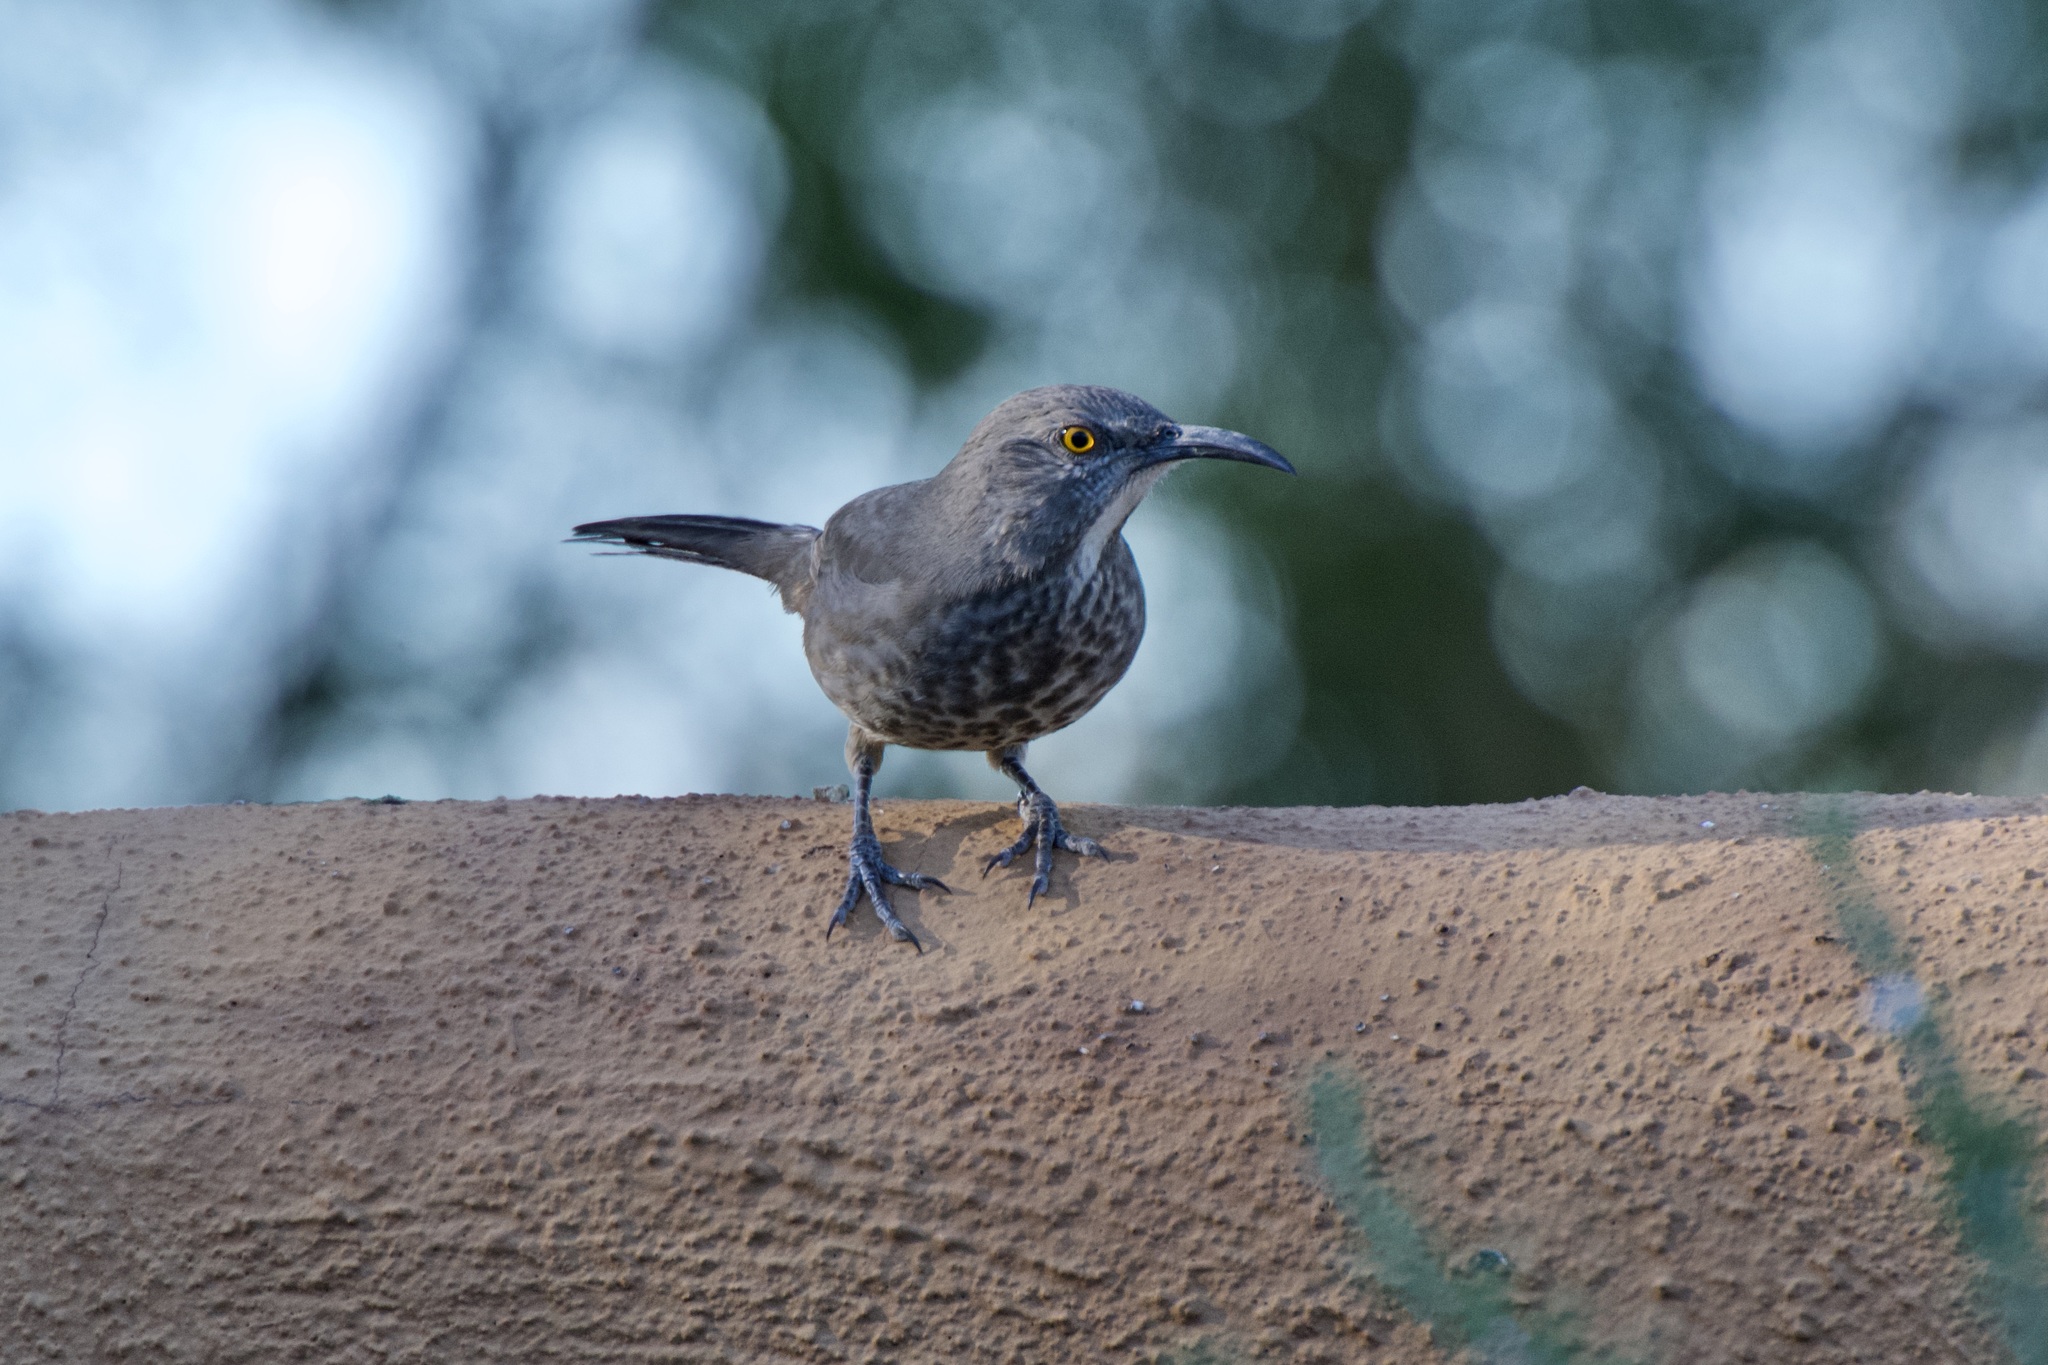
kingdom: Animalia
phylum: Chordata
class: Aves
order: Passeriformes
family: Mimidae
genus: Toxostoma
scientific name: Toxostoma curvirostre
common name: Curve-billed thrasher
